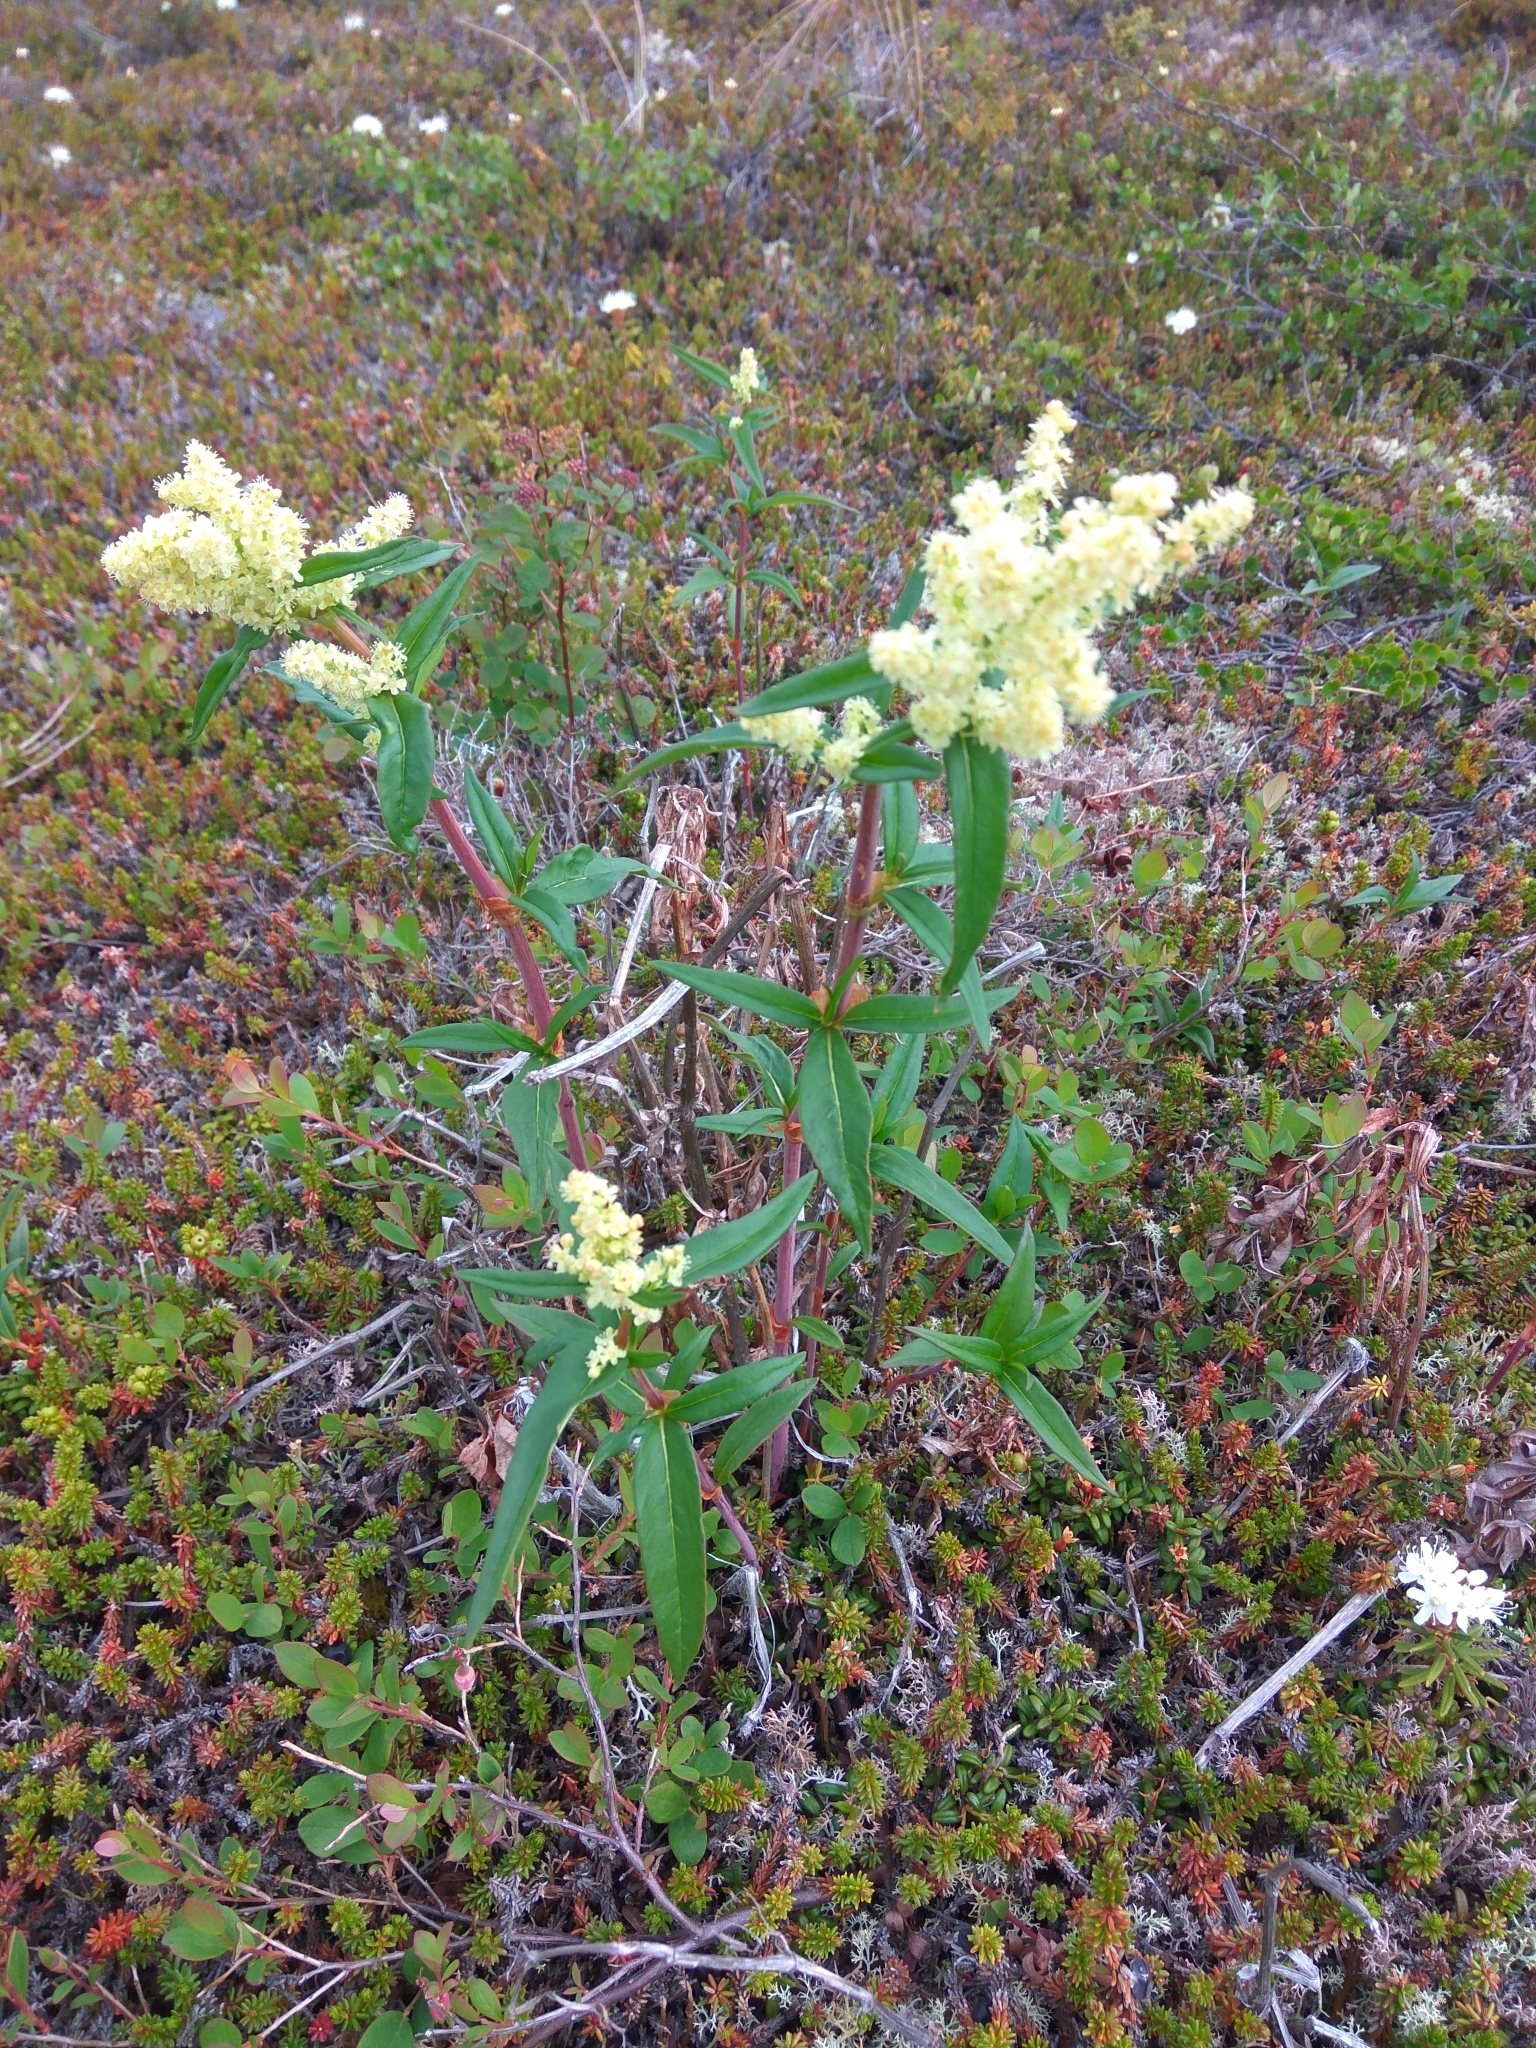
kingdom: Plantae
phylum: Tracheophyta
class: Magnoliopsida
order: Caryophyllales
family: Polygonaceae
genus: Koenigia
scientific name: Koenigia tripterocarpa
